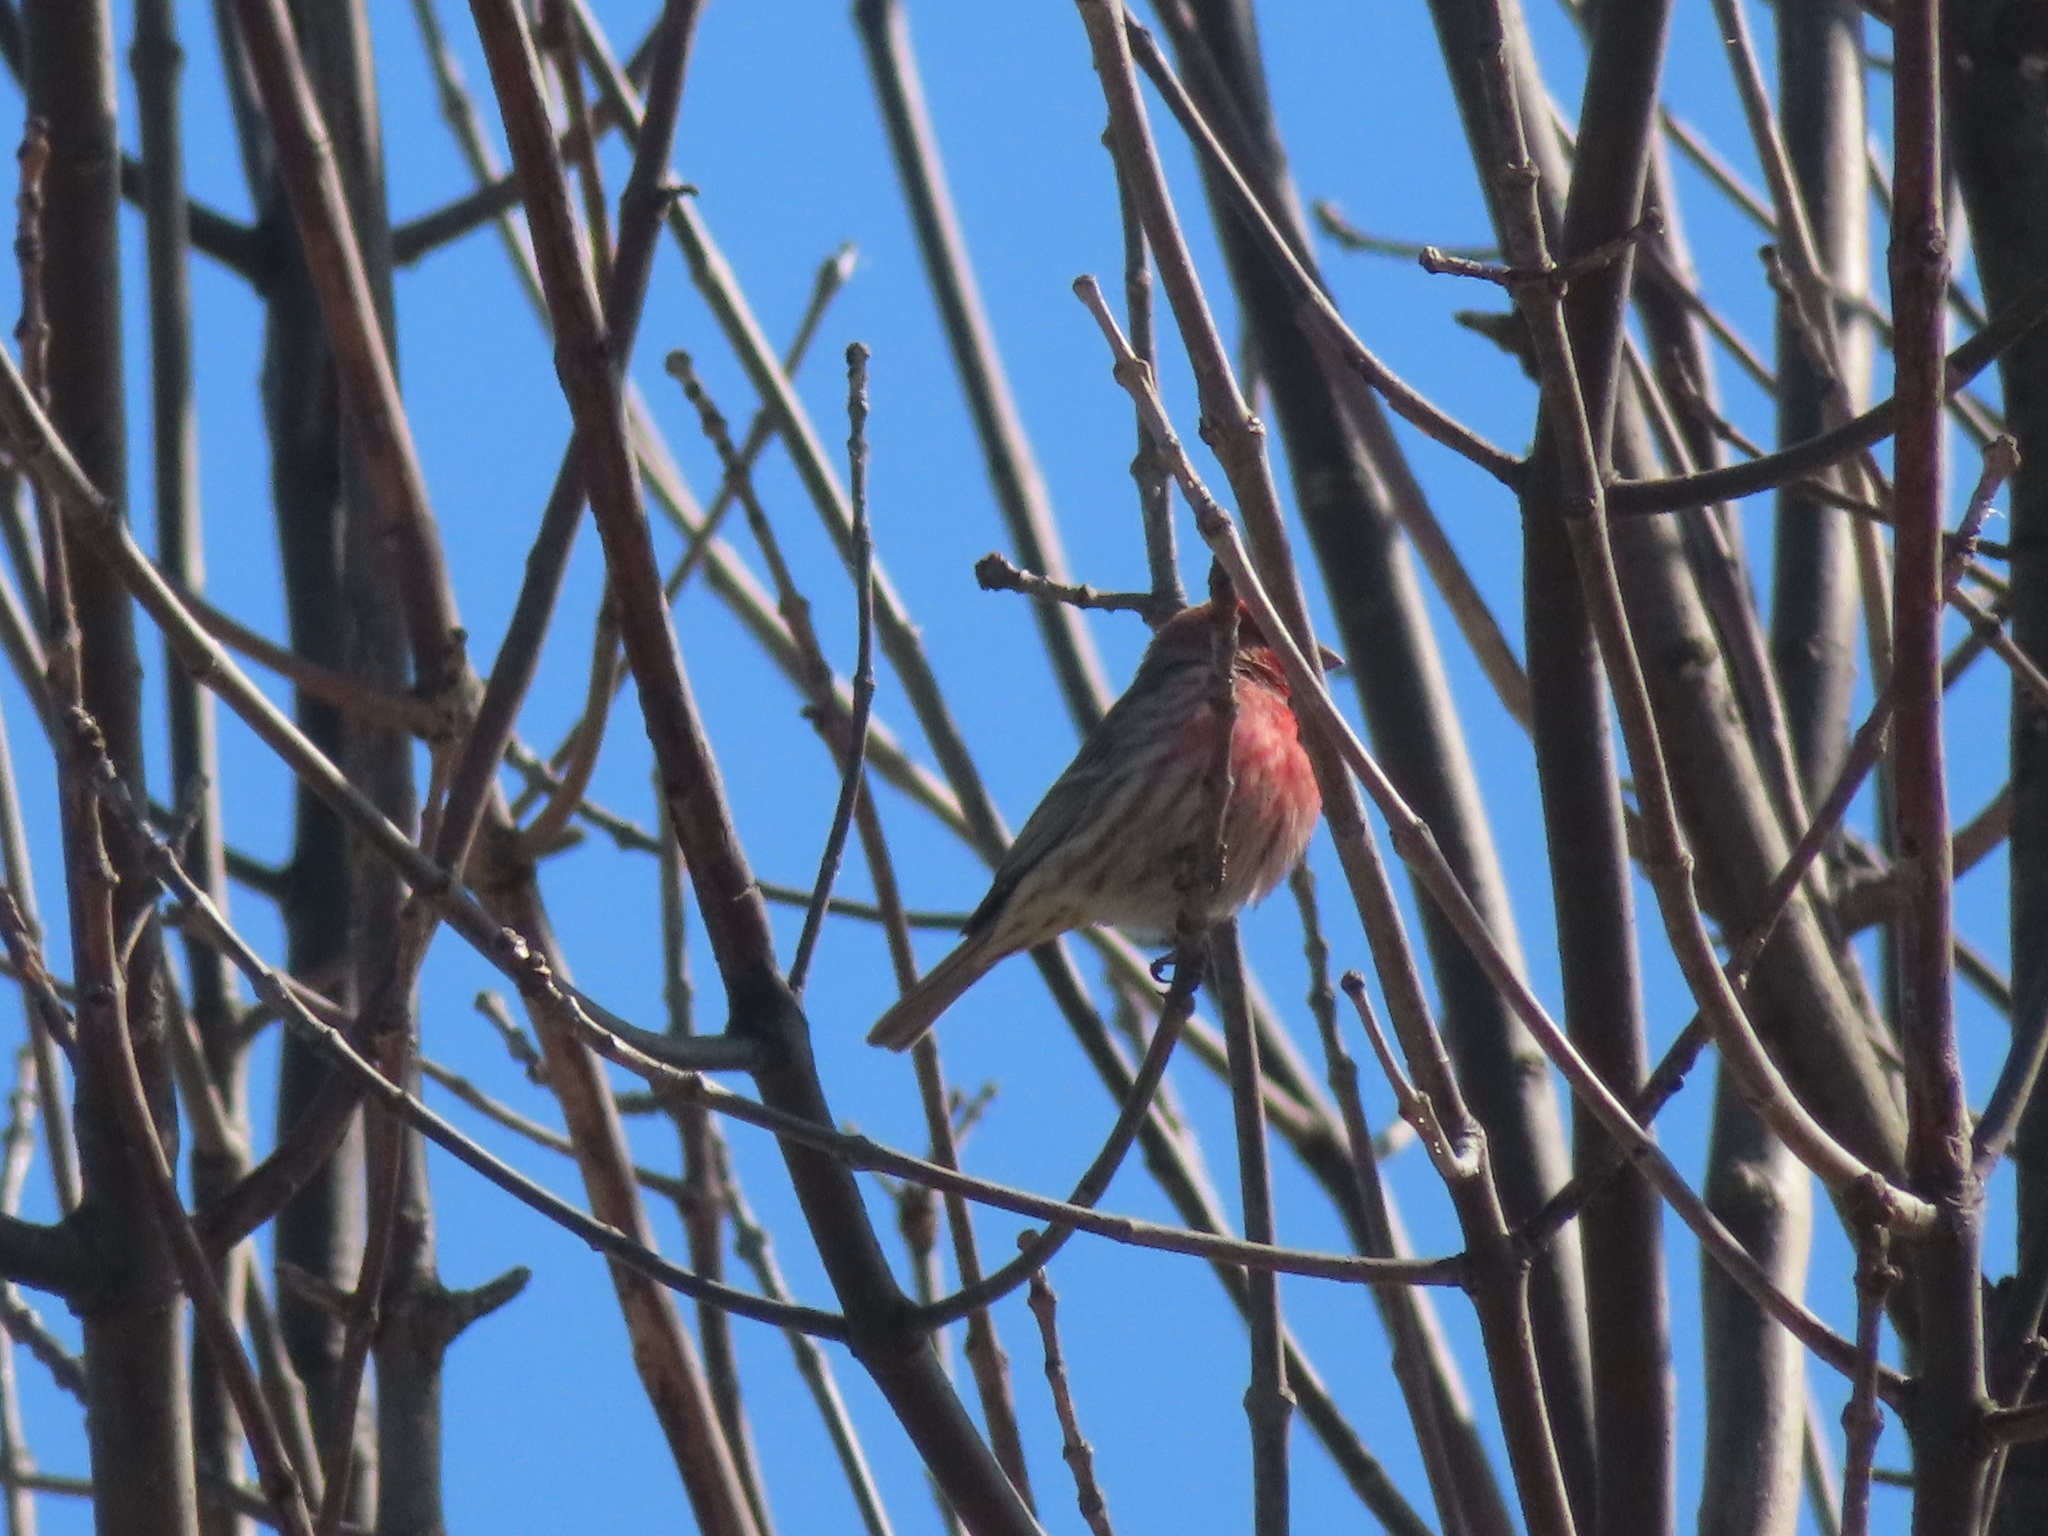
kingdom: Animalia
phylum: Chordata
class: Aves
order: Passeriformes
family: Fringillidae
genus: Haemorhous
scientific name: Haemorhous mexicanus
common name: House finch
